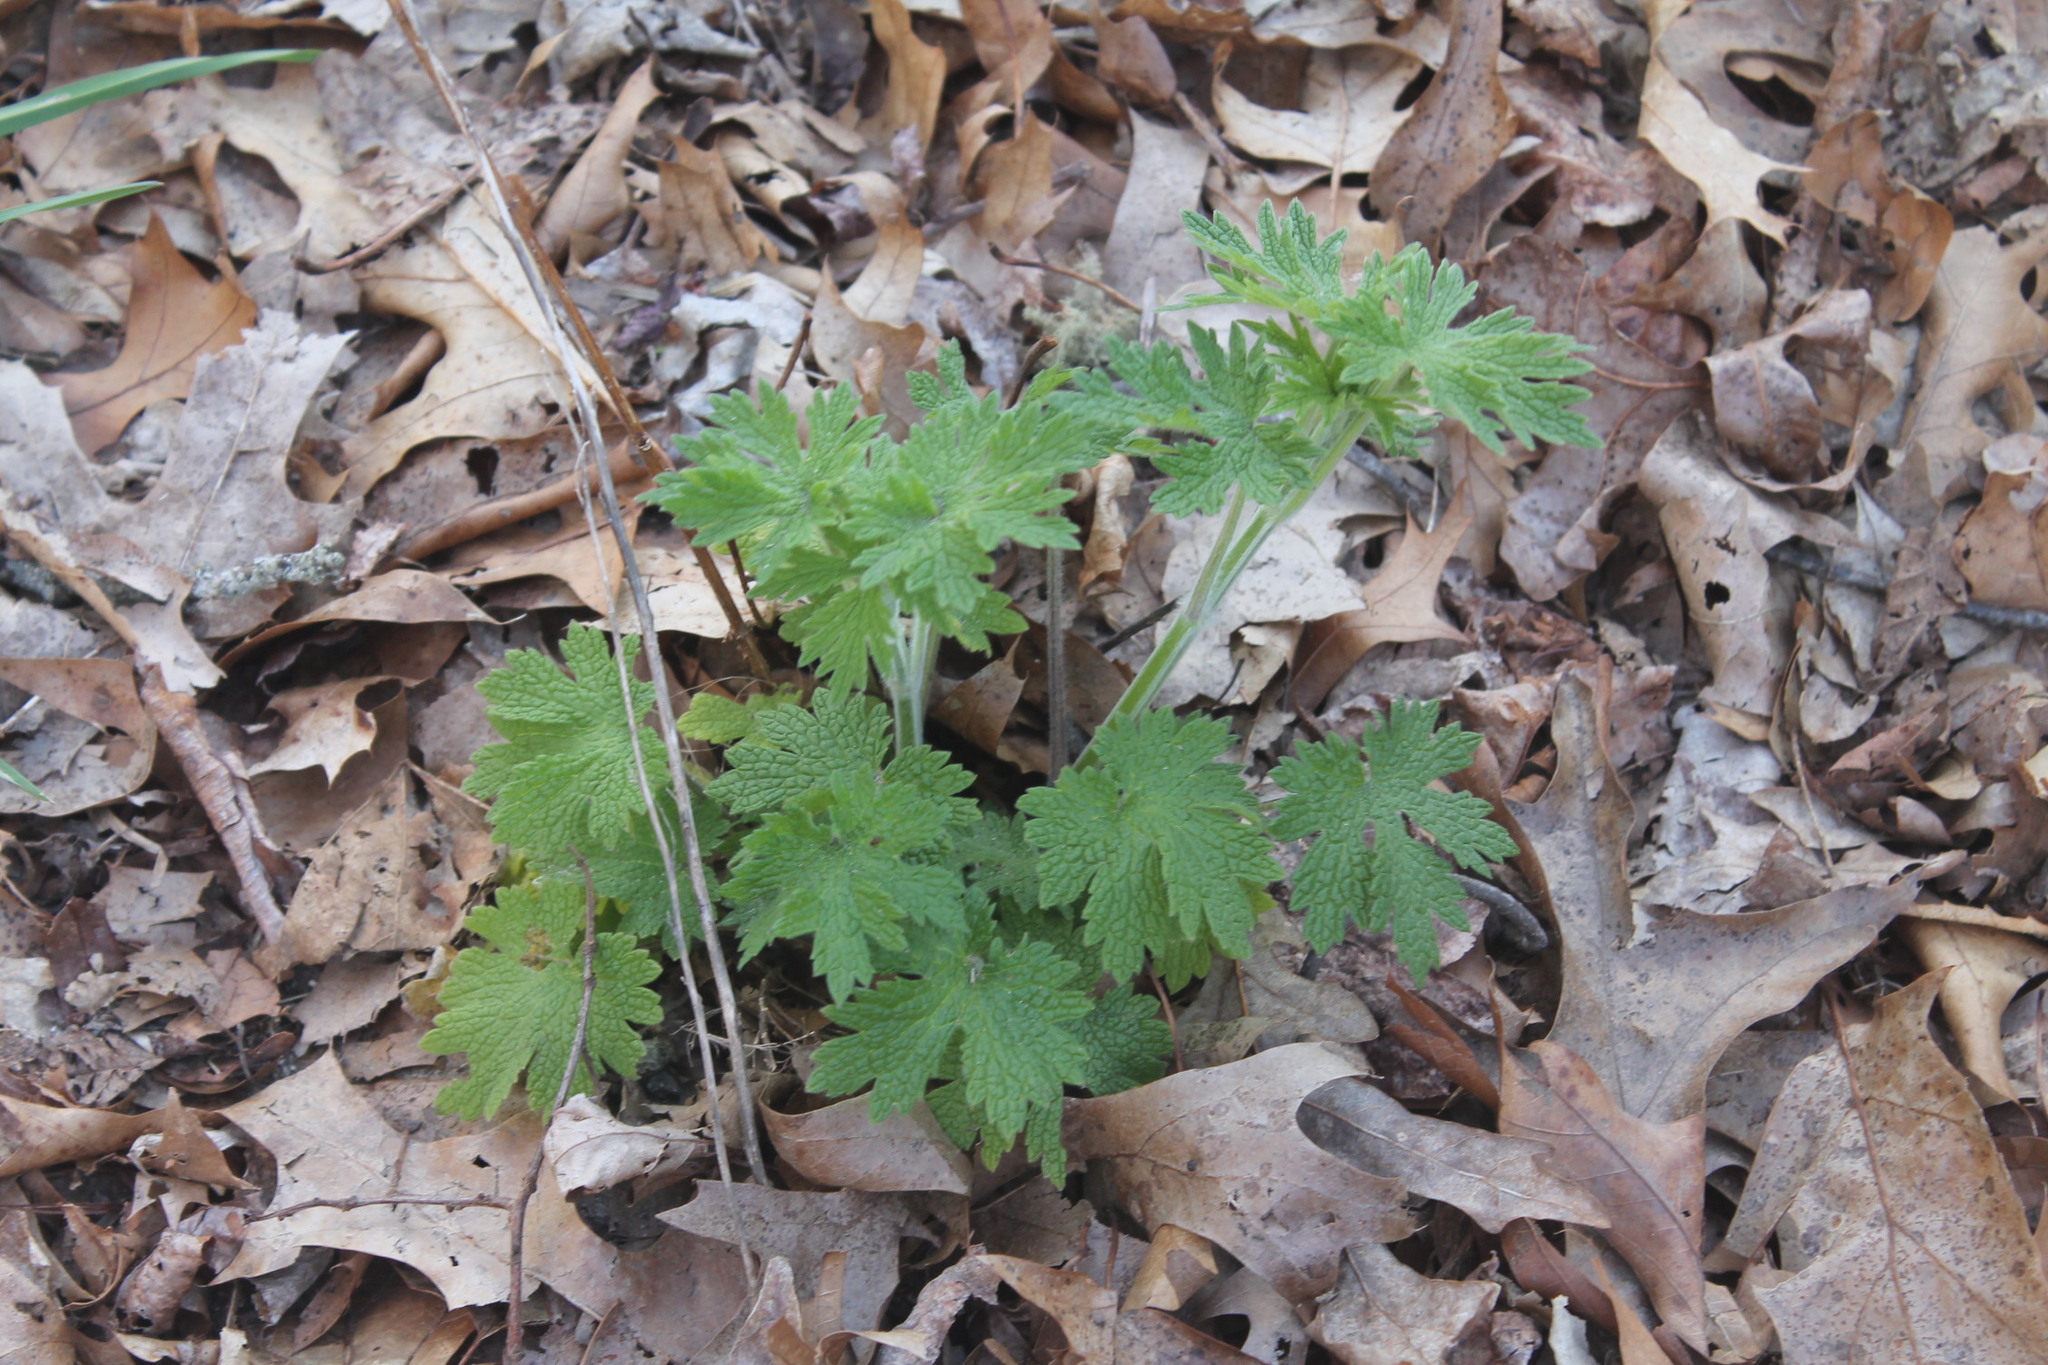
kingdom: Plantae
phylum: Tracheophyta
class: Magnoliopsida
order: Lamiales
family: Lamiaceae
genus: Leonurus
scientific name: Leonurus cardiaca
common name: Motherwort
